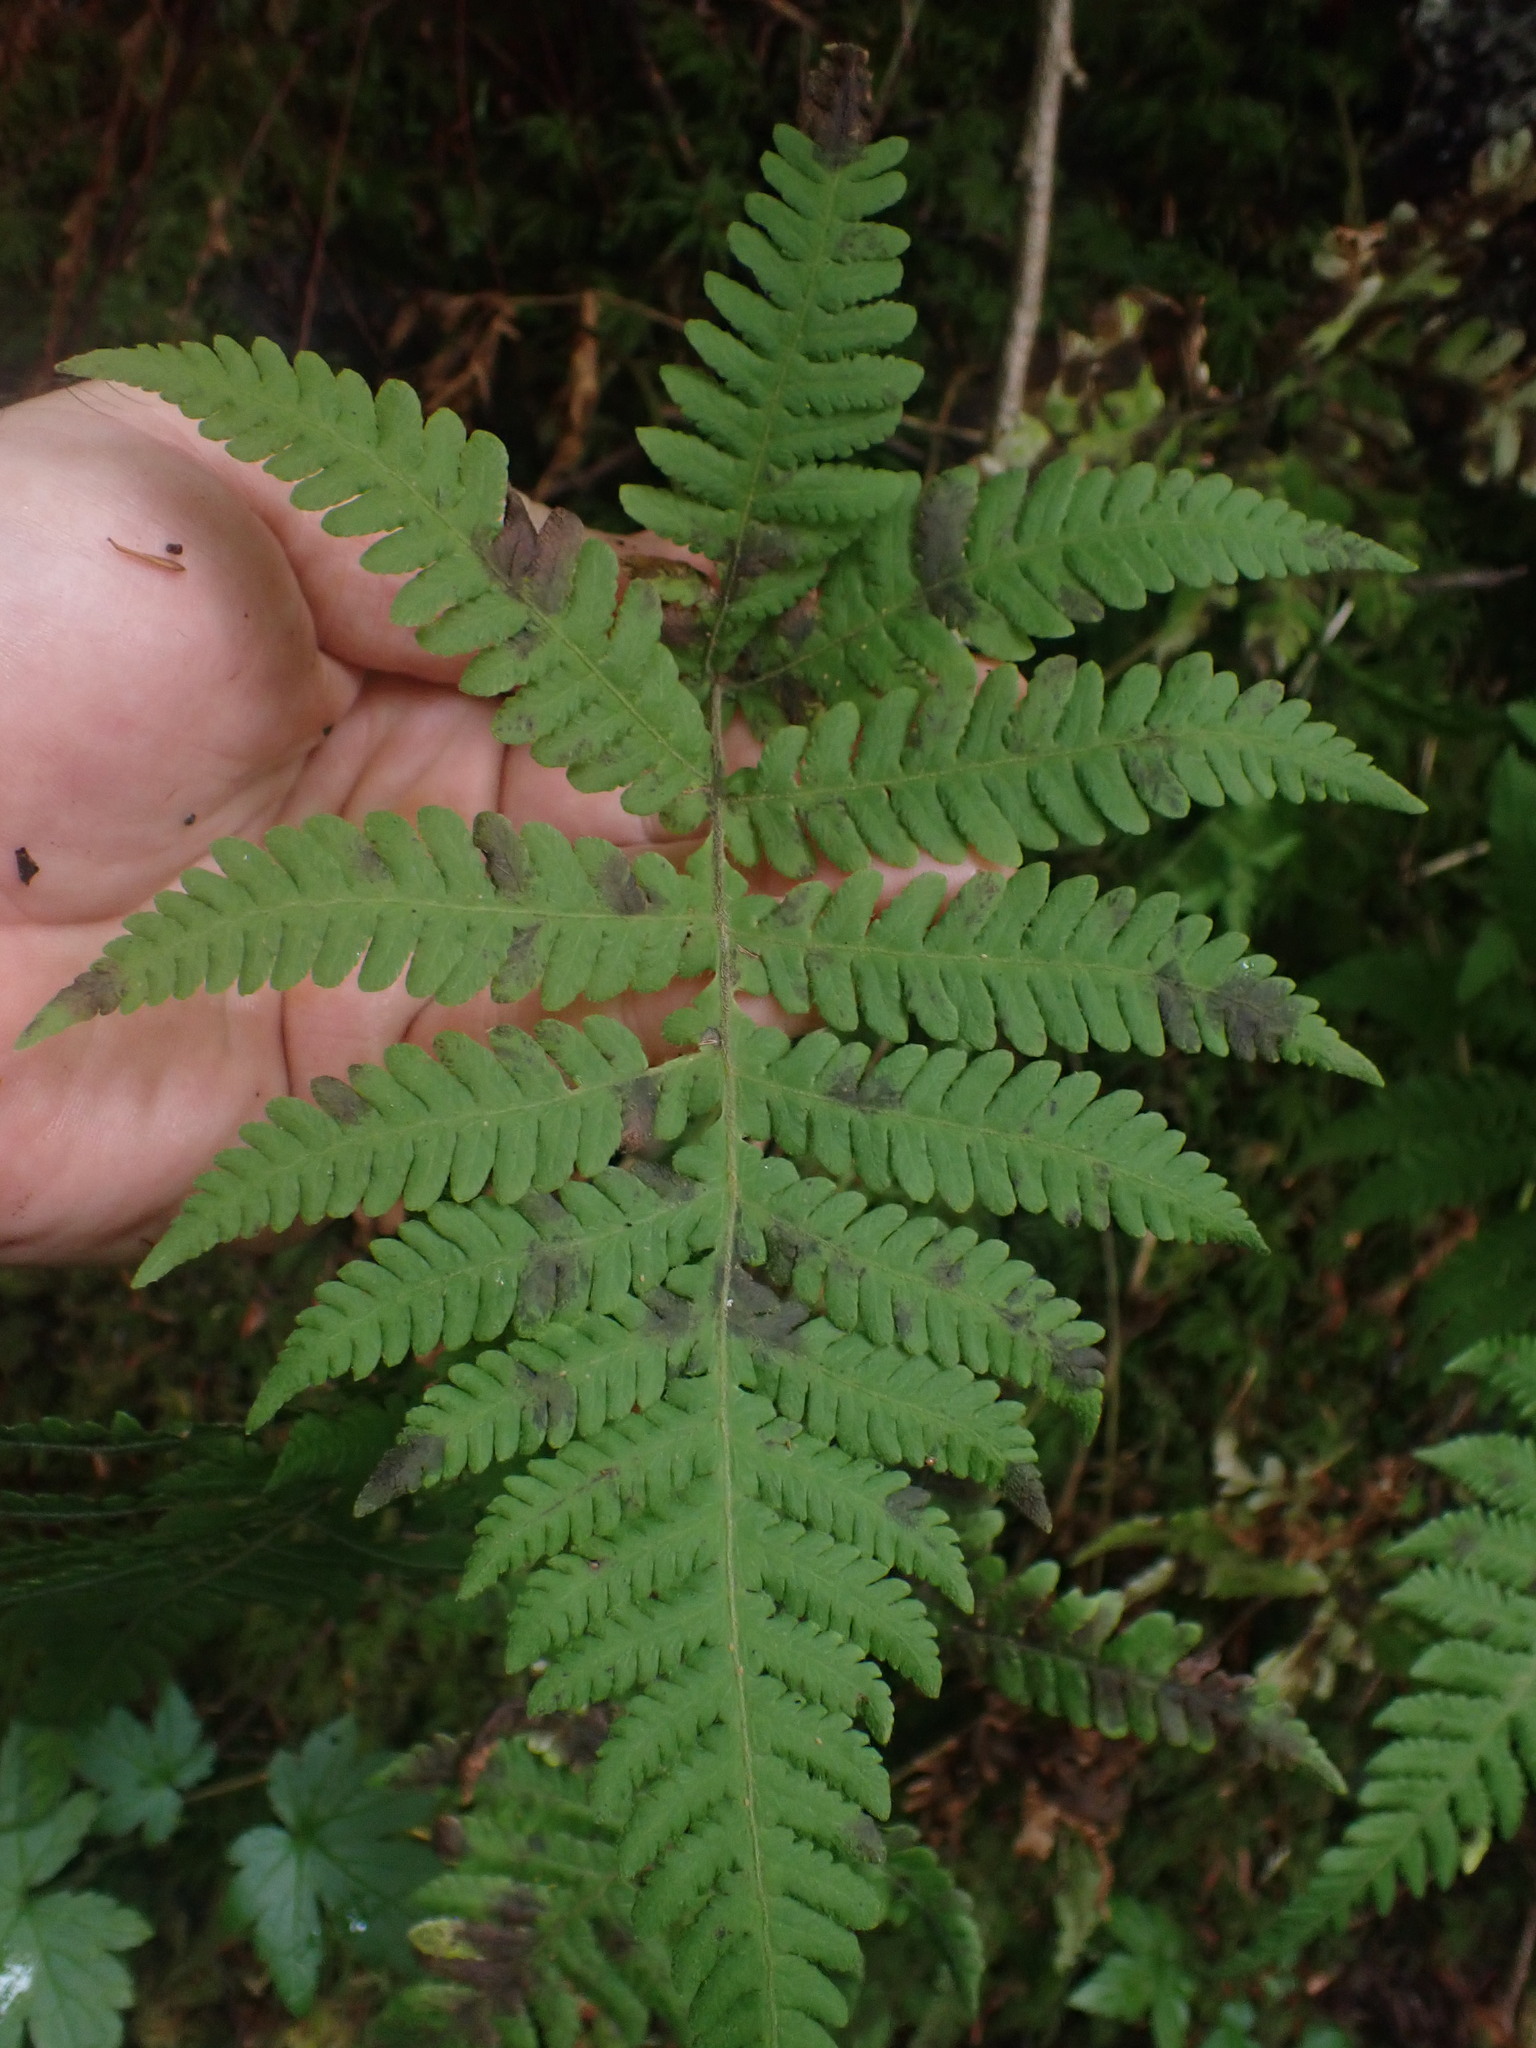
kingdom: Plantae
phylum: Tracheophyta
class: Polypodiopsida
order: Polypodiales
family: Thelypteridaceae
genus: Phegopteris
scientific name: Phegopteris connectilis
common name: Beech fern
